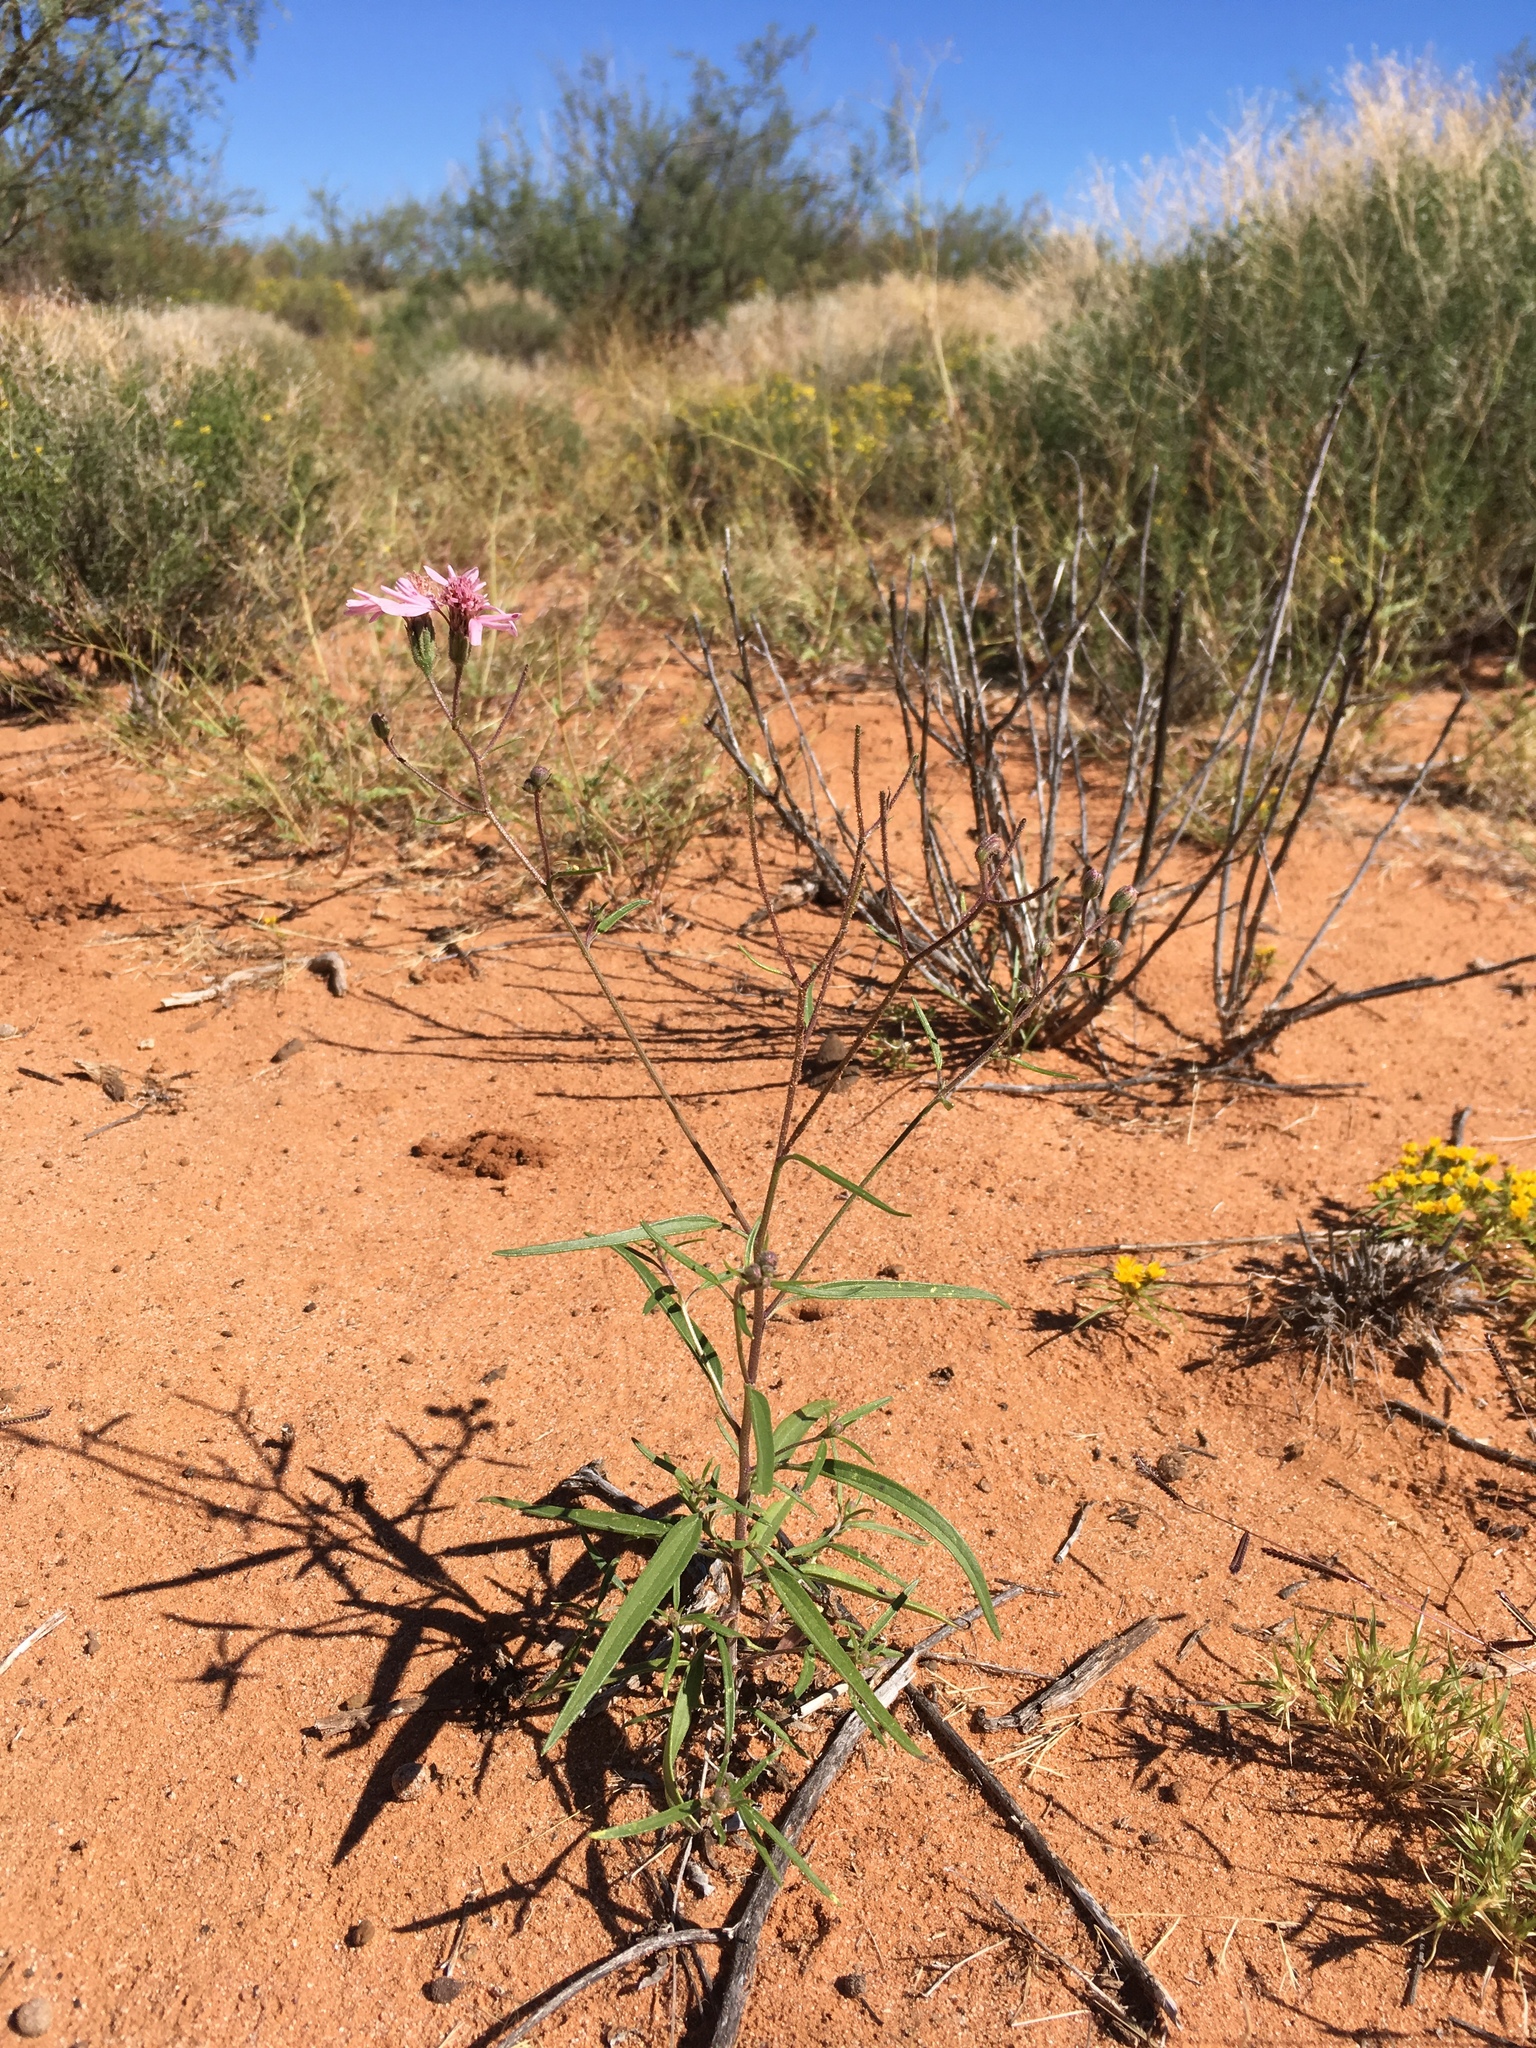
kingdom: Plantae
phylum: Tracheophyta
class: Magnoliopsida
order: Asterales
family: Asteraceae
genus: Palafoxia
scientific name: Palafoxia sphacelata
